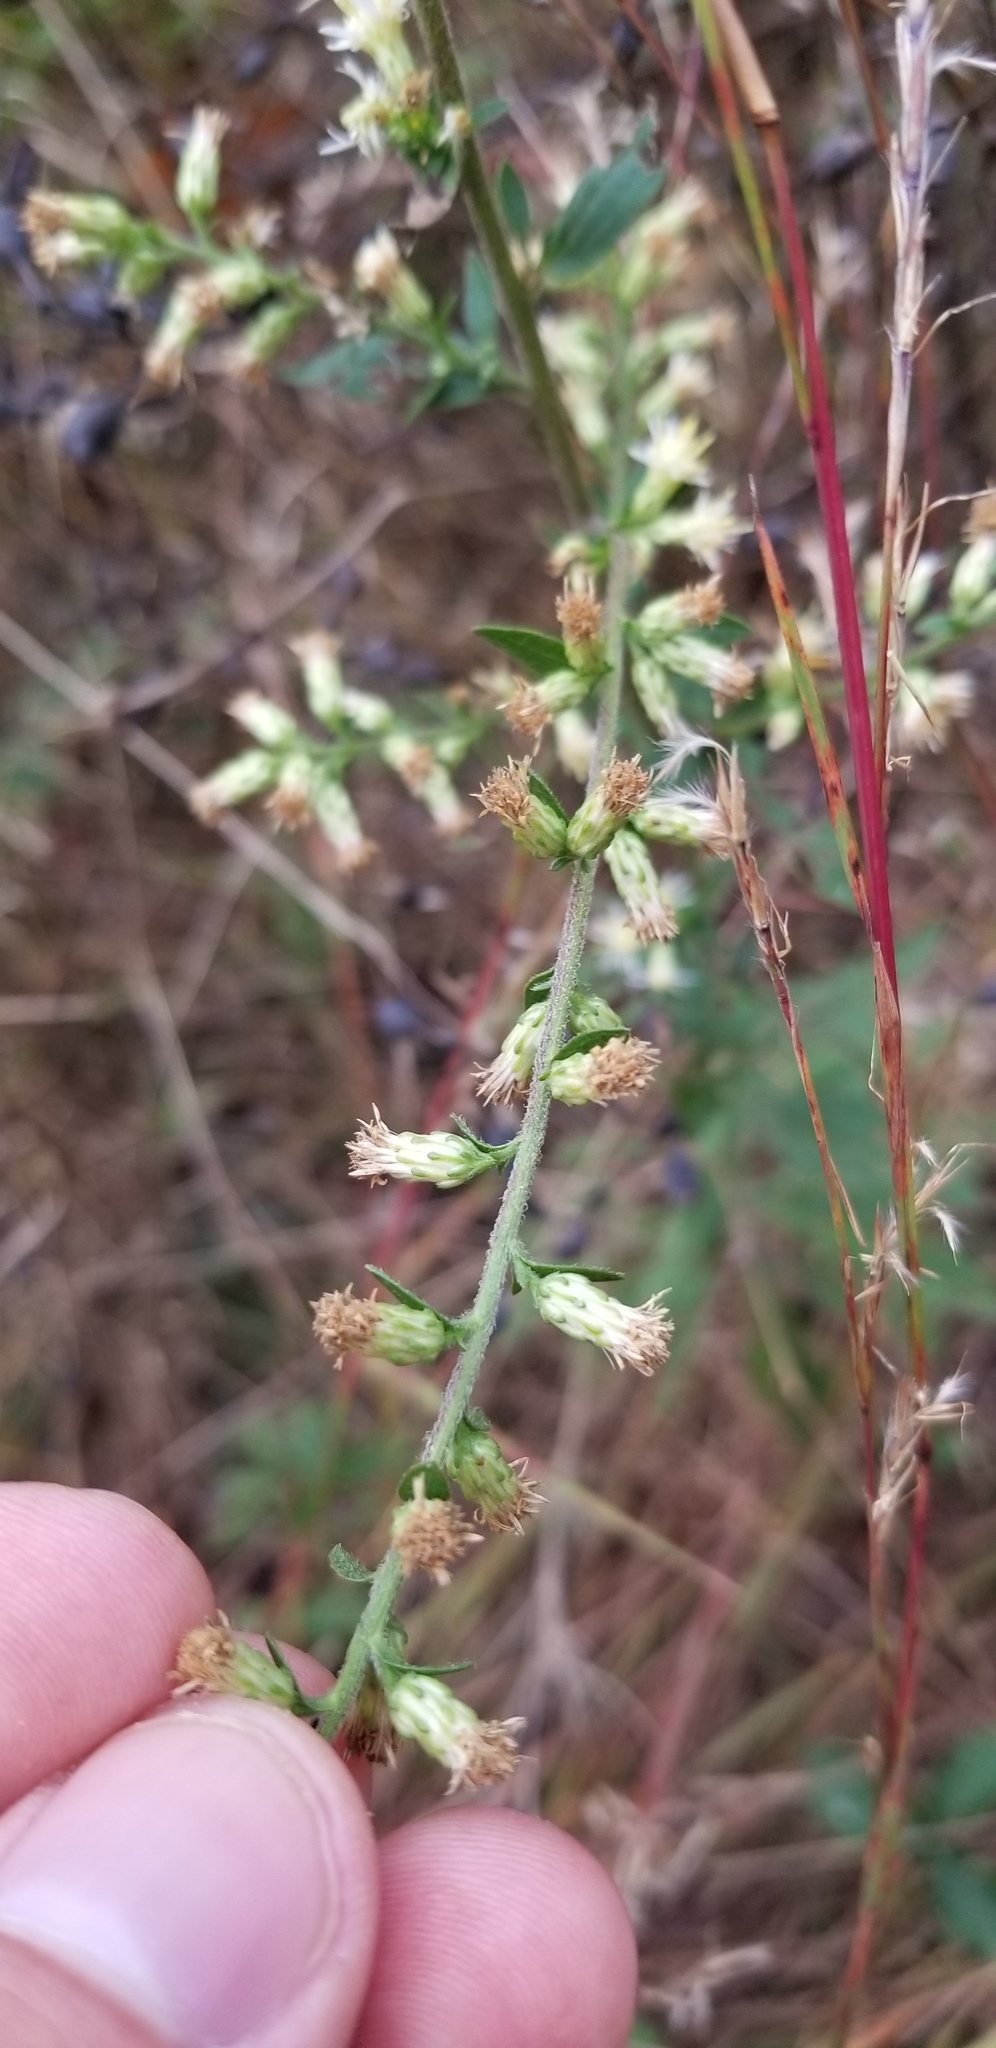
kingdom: Plantae
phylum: Tracheophyta
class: Magnoliopsida
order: Asterales
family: Asteraceae
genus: Solidago
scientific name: Solidago bicolor
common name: Silverrod
